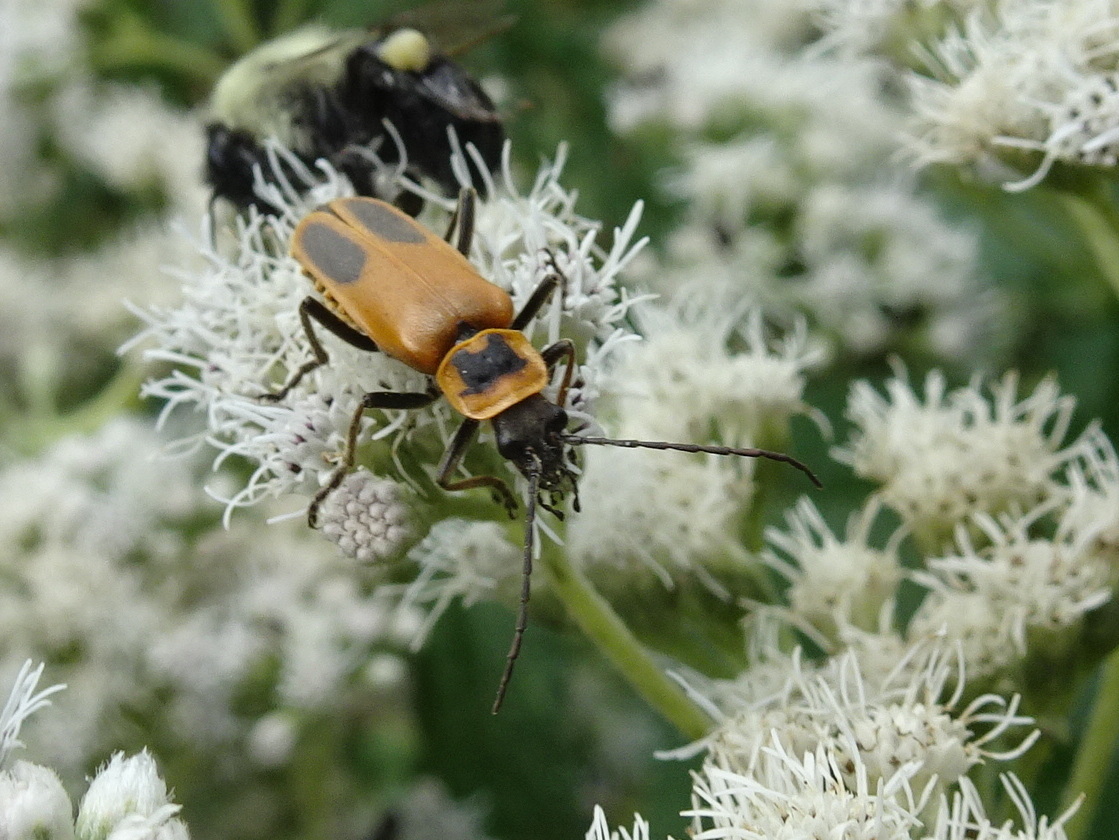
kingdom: Animalia
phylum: Arthropoda
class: Insecta
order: Coleoptera
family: Cantharidae
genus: Chauliognathus
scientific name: Chauliognathus pensylvanicus
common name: Goldenrod soldier beetle
